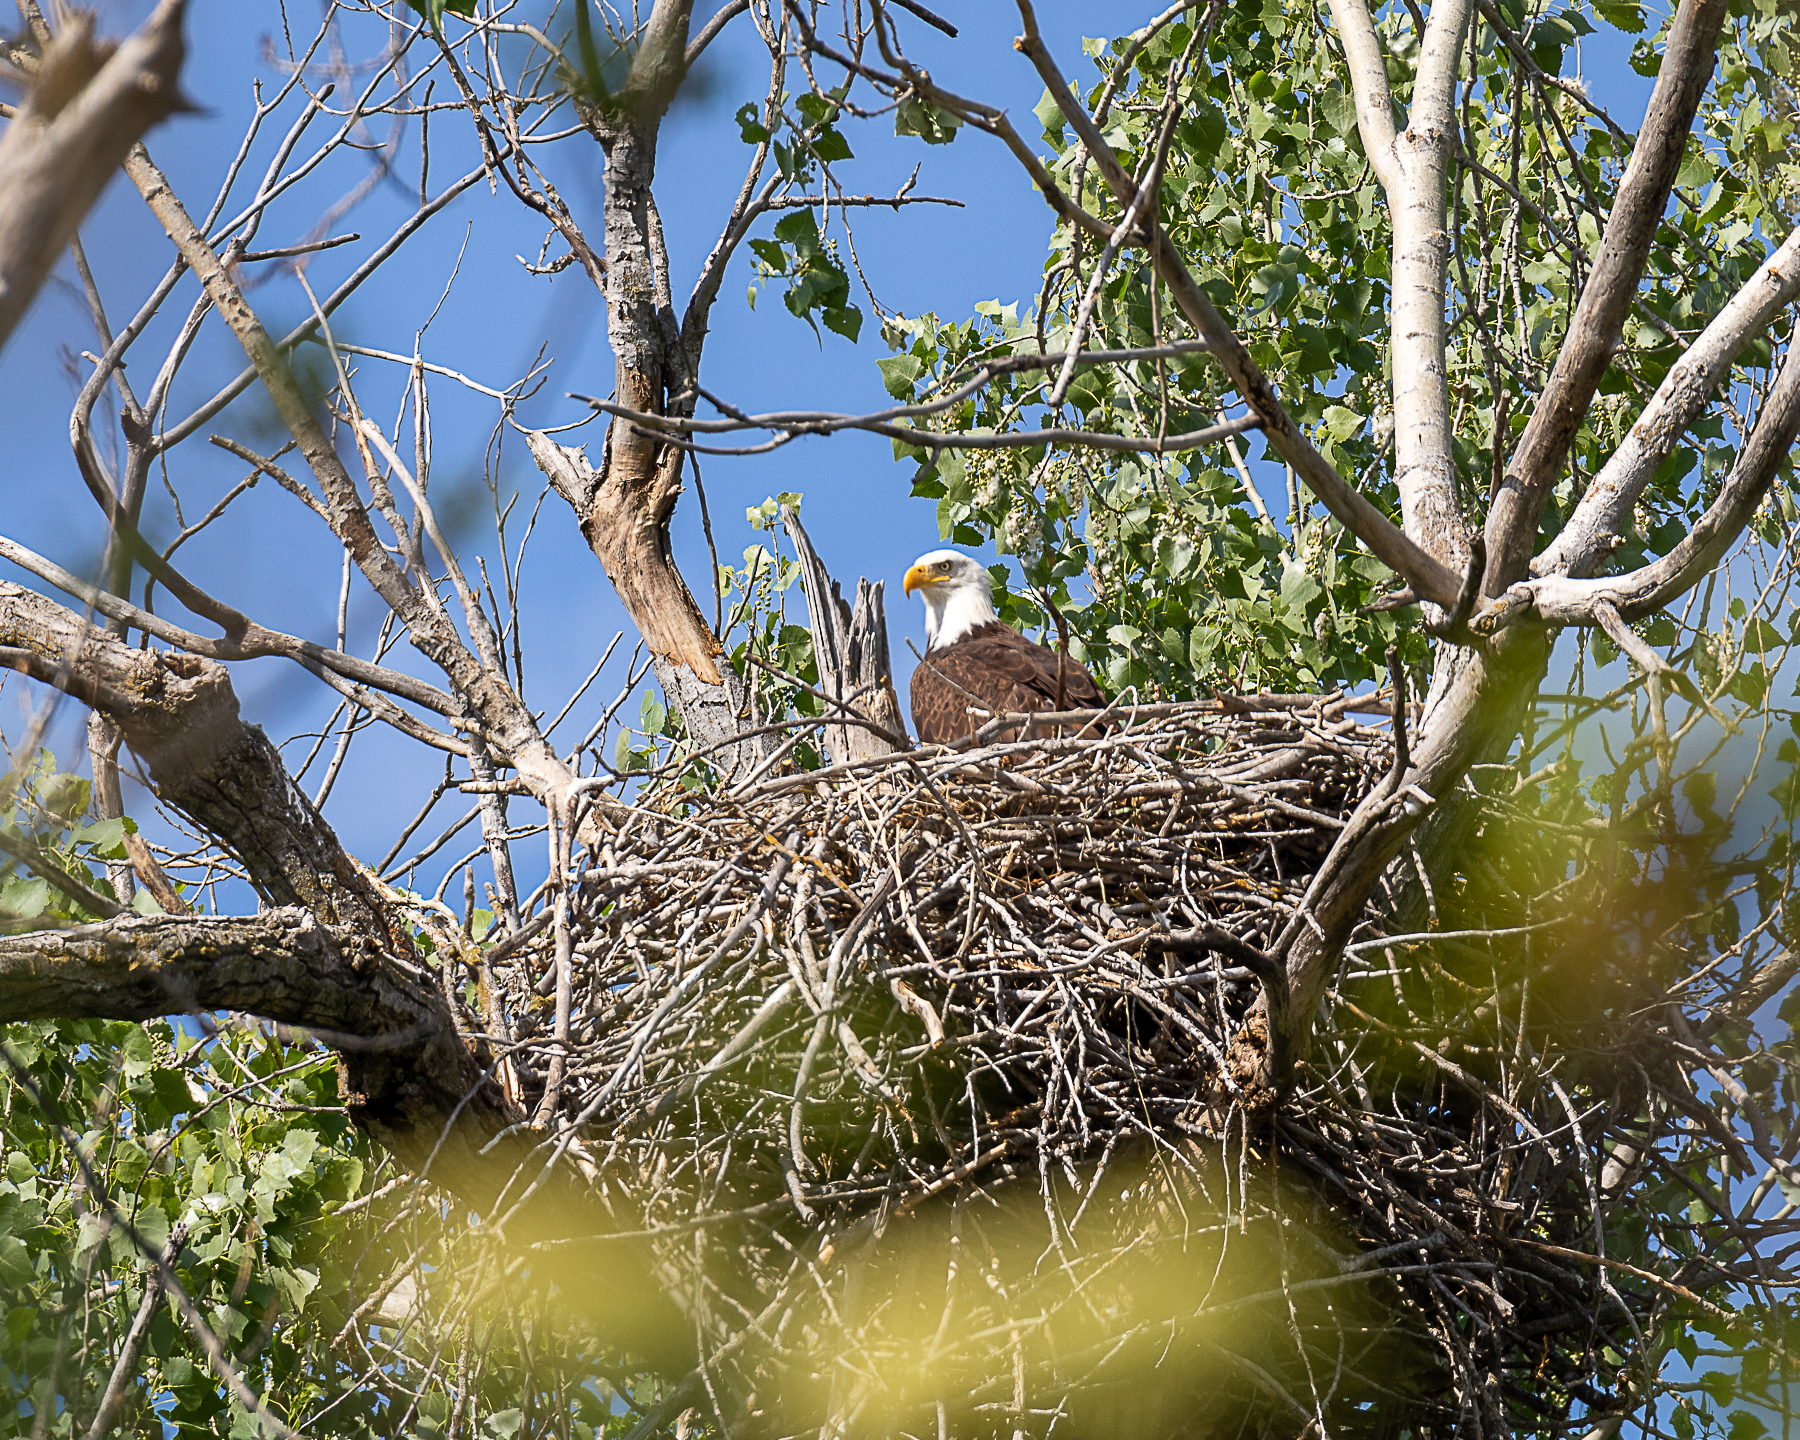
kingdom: Animalia
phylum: Chordata
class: Aves
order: Accipitriformes
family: Accipitridae
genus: Haliaeetus
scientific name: Haliaeetus leucocephalus
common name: Bald eagle
